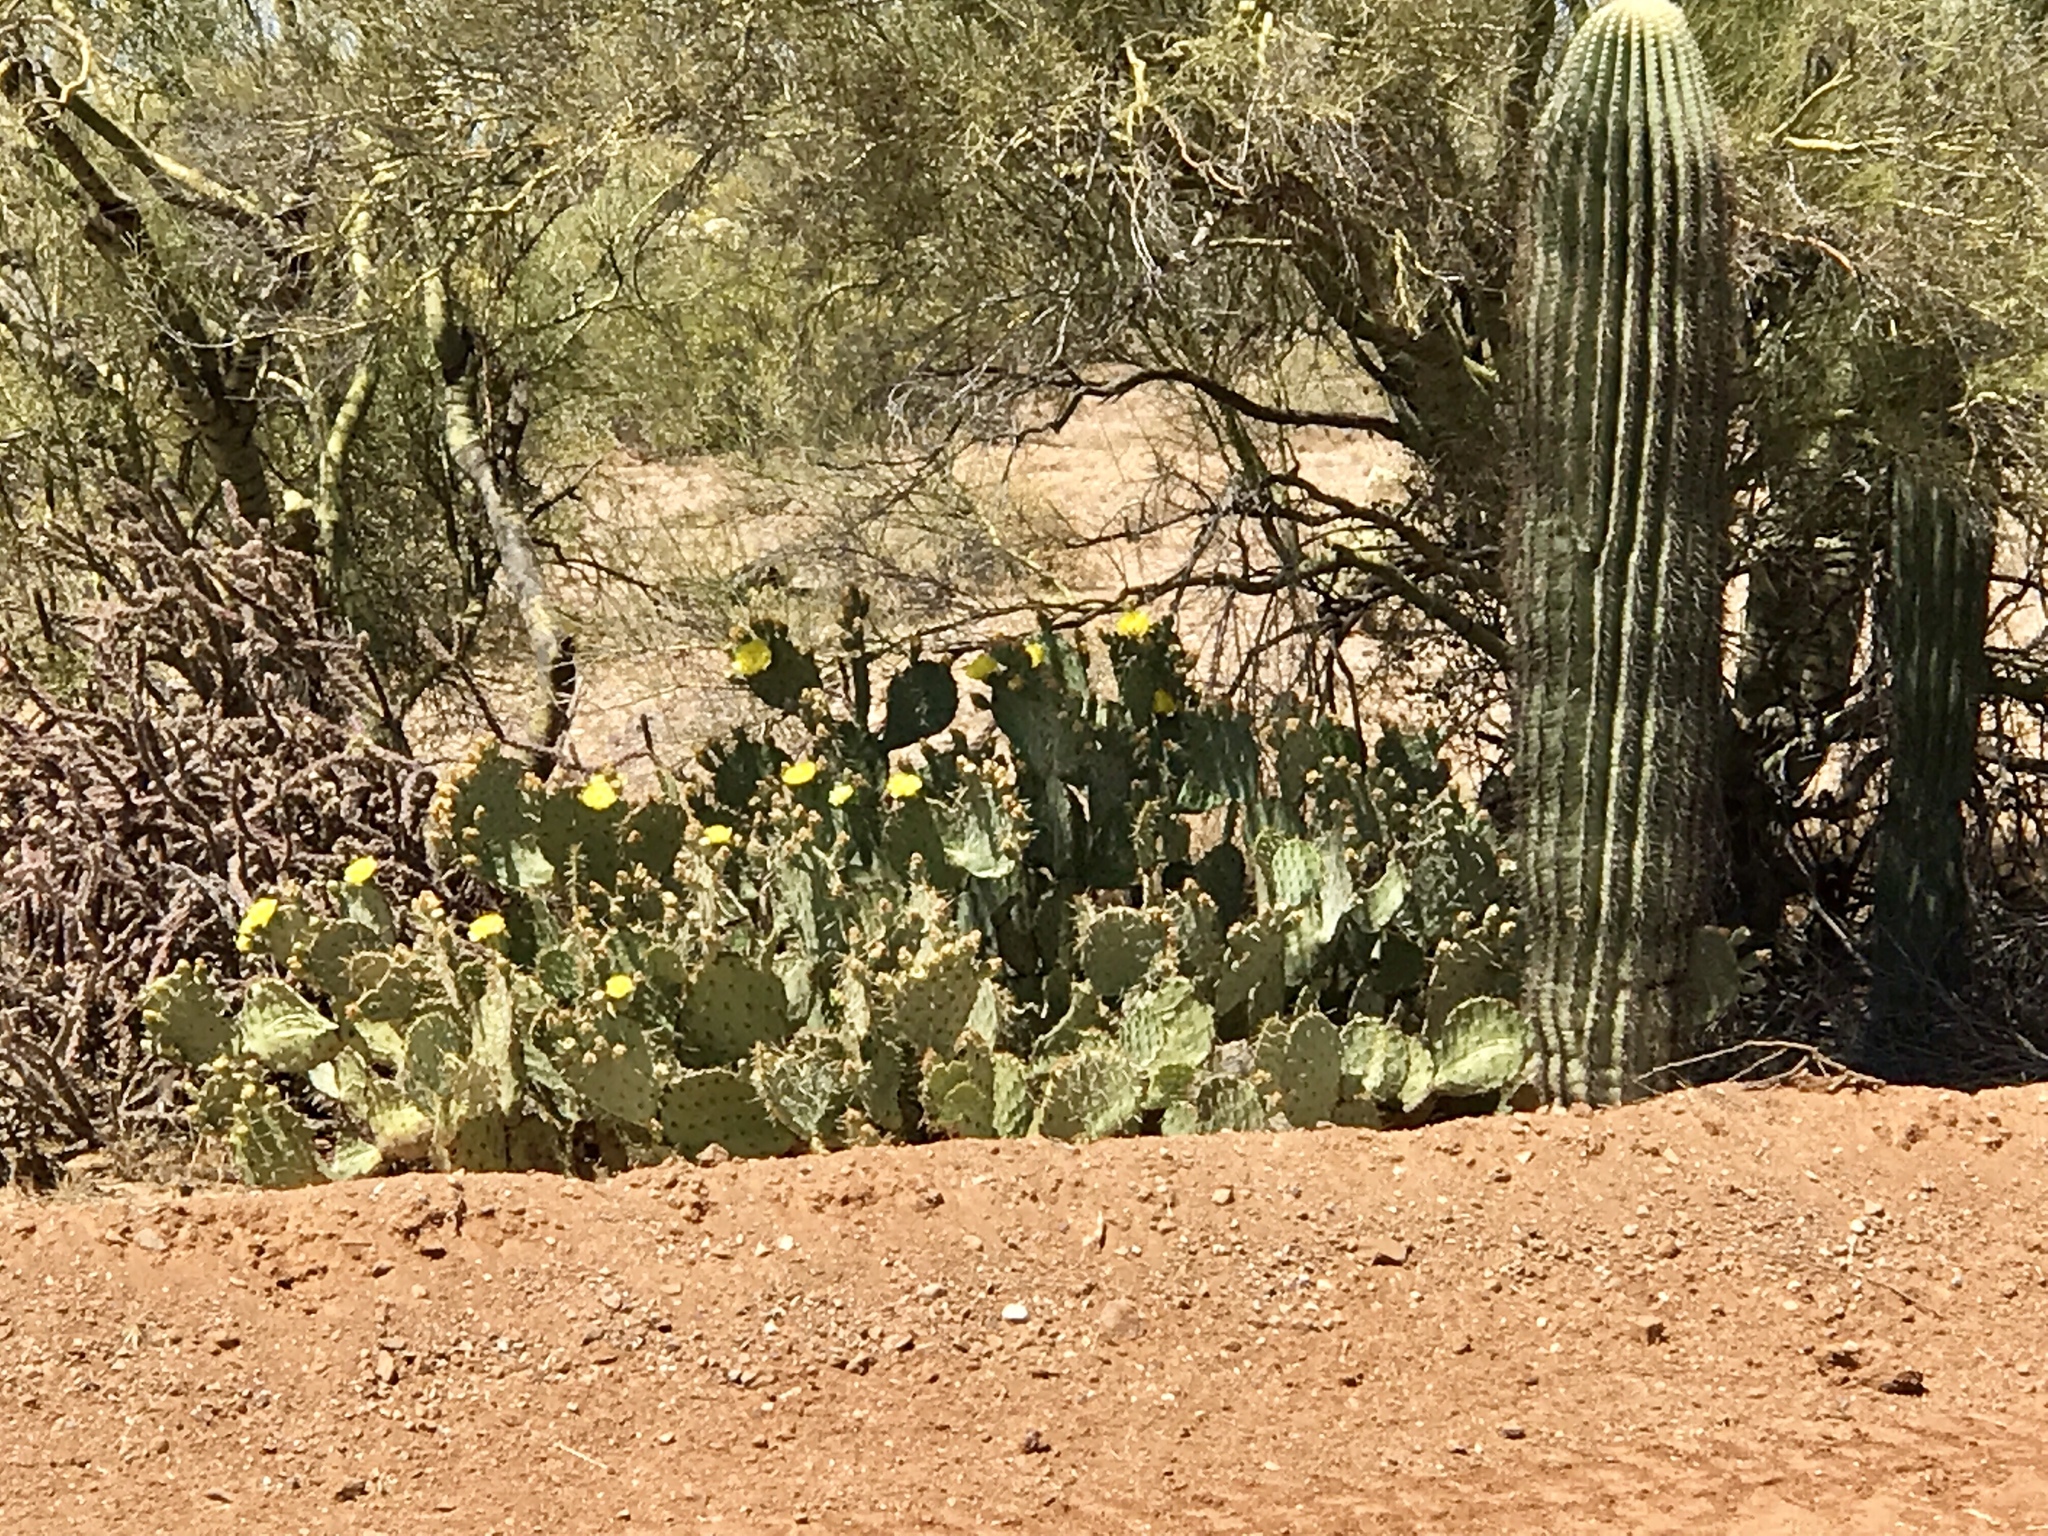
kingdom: Plantae
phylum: Tracheophyta
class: Magnoliopsida
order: Caryophyllales
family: Cactaceae
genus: Carnegiea
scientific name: Carnegiea gigantea
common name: Saguaro
